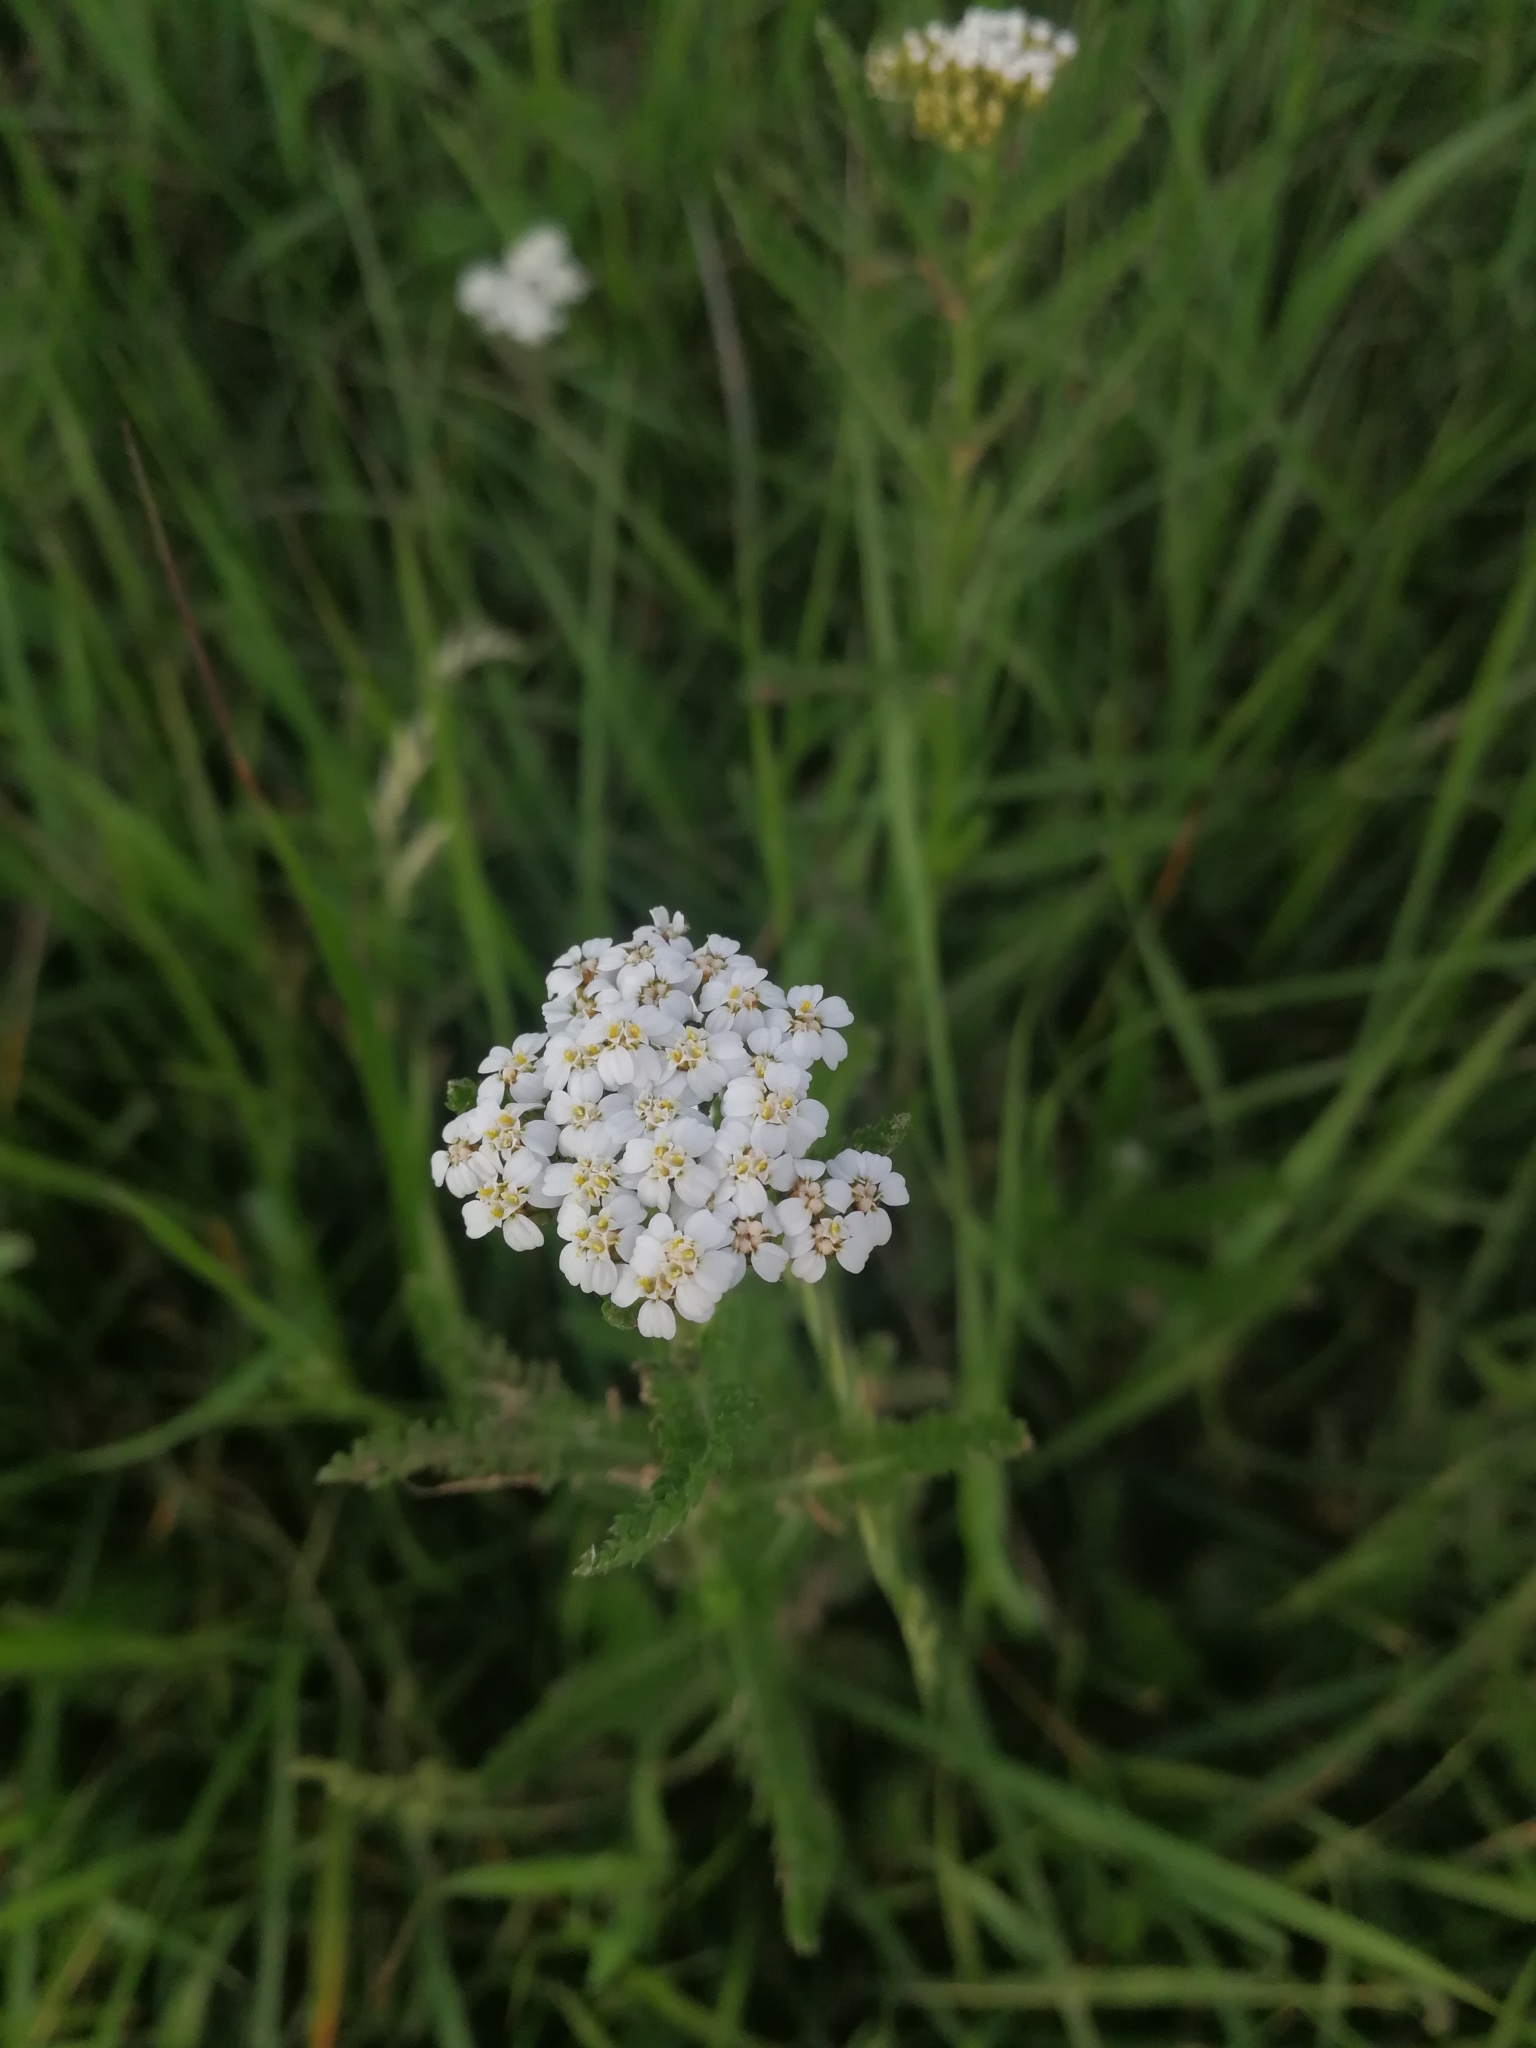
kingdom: Plantae
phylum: Tracheophyta
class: Magnoliopsida
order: Asterales
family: Asteraceae
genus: Achillea
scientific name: Achillea millefolium
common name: Yarrow
